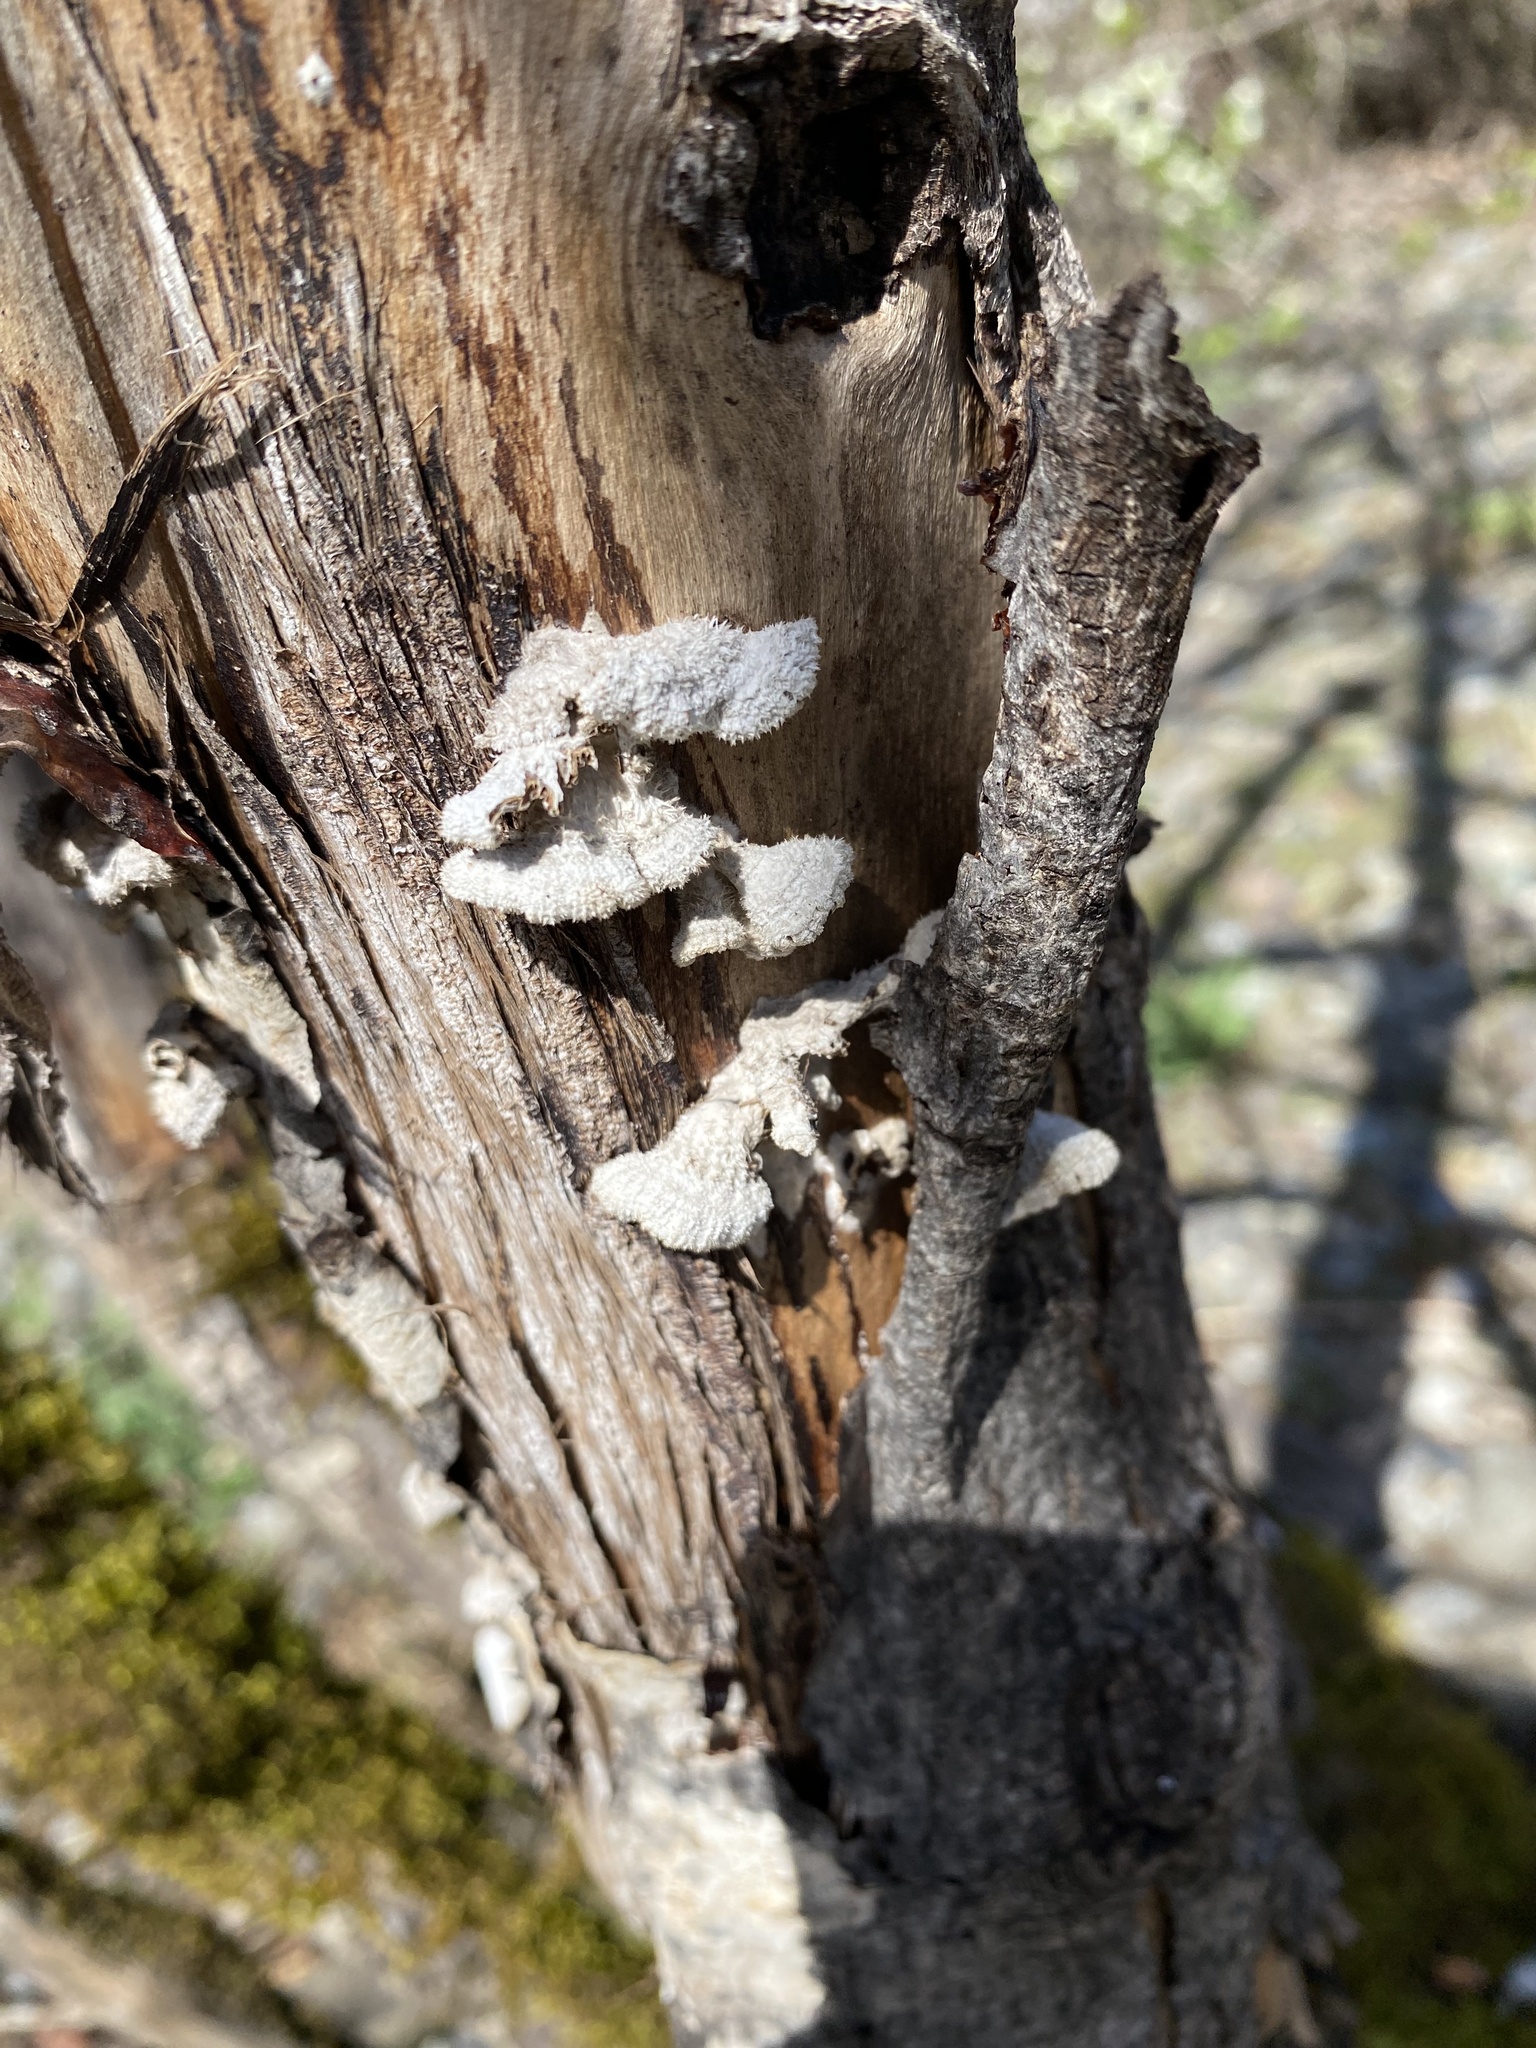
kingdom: Fungi
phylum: Basidiomycota
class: Agaricomycetes
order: Agaricales
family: Schizophyllaceae
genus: Schizophyllum
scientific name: Schizophyllum commune
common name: Common porecrust
